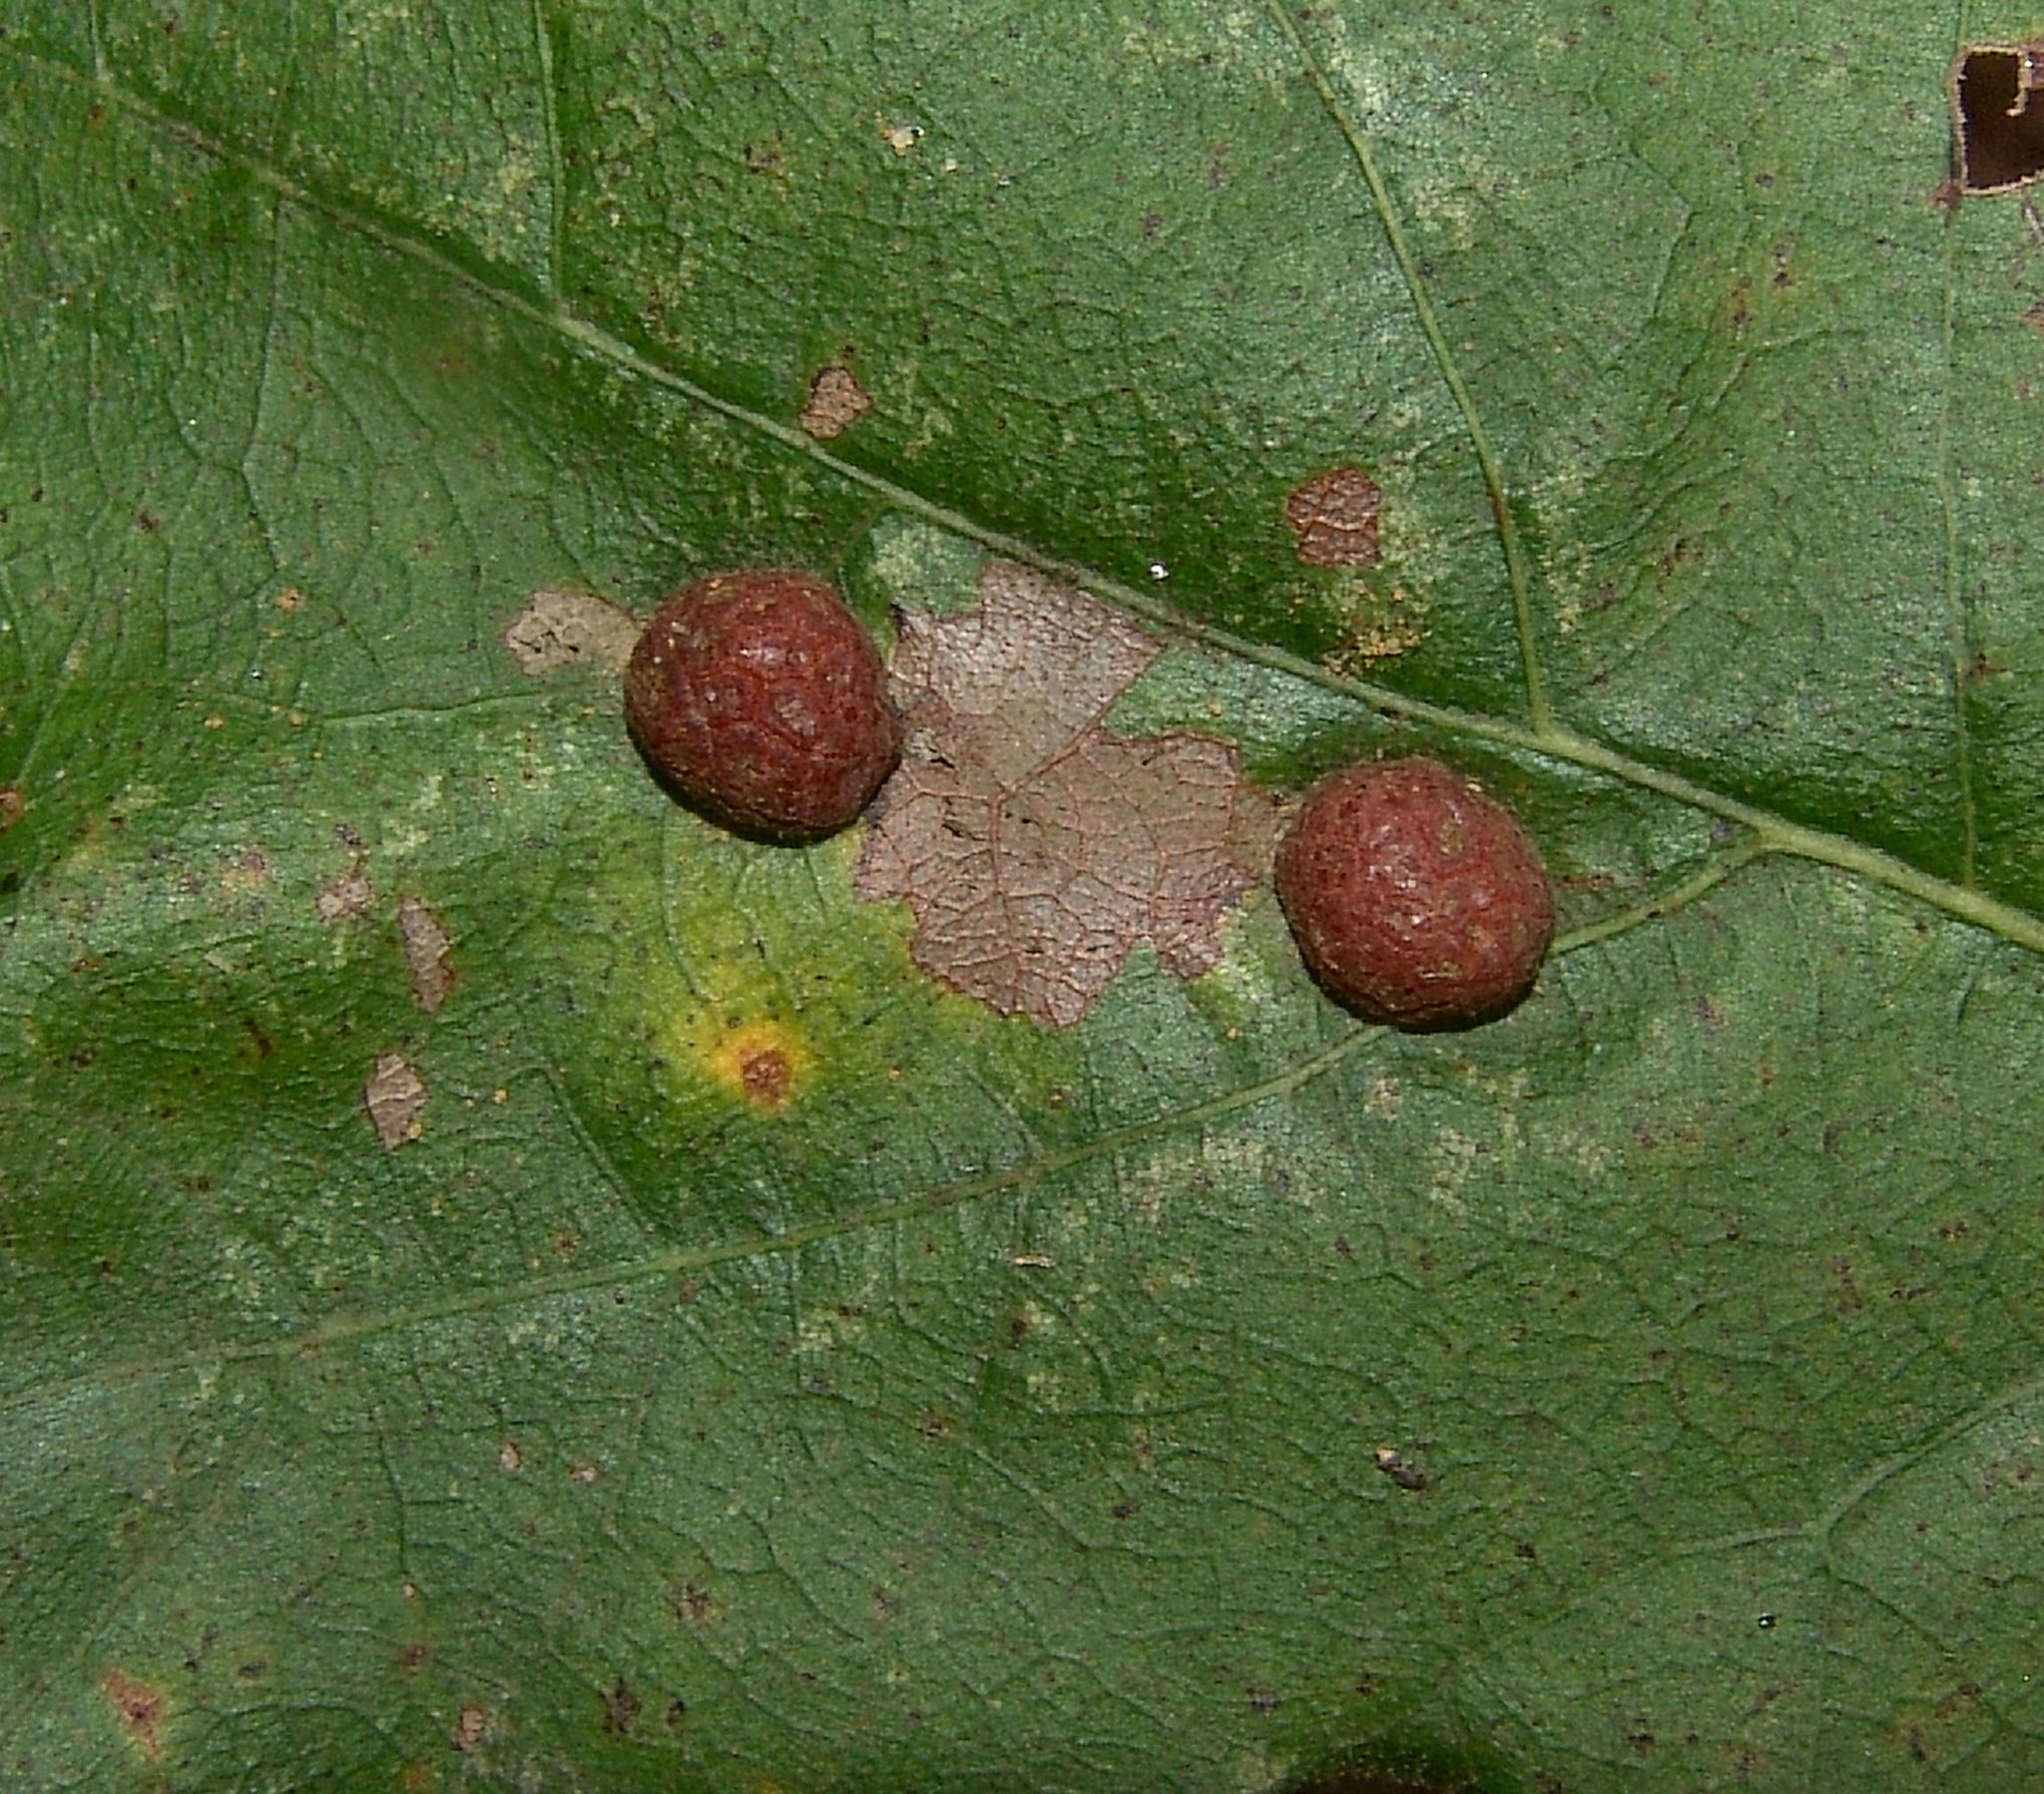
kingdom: Animalia
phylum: Arthropoda
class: Insecta
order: Diptera
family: Cecidomyiidae
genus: Polystepha
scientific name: Polystepha pilulae
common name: Oak leaf gall midge
